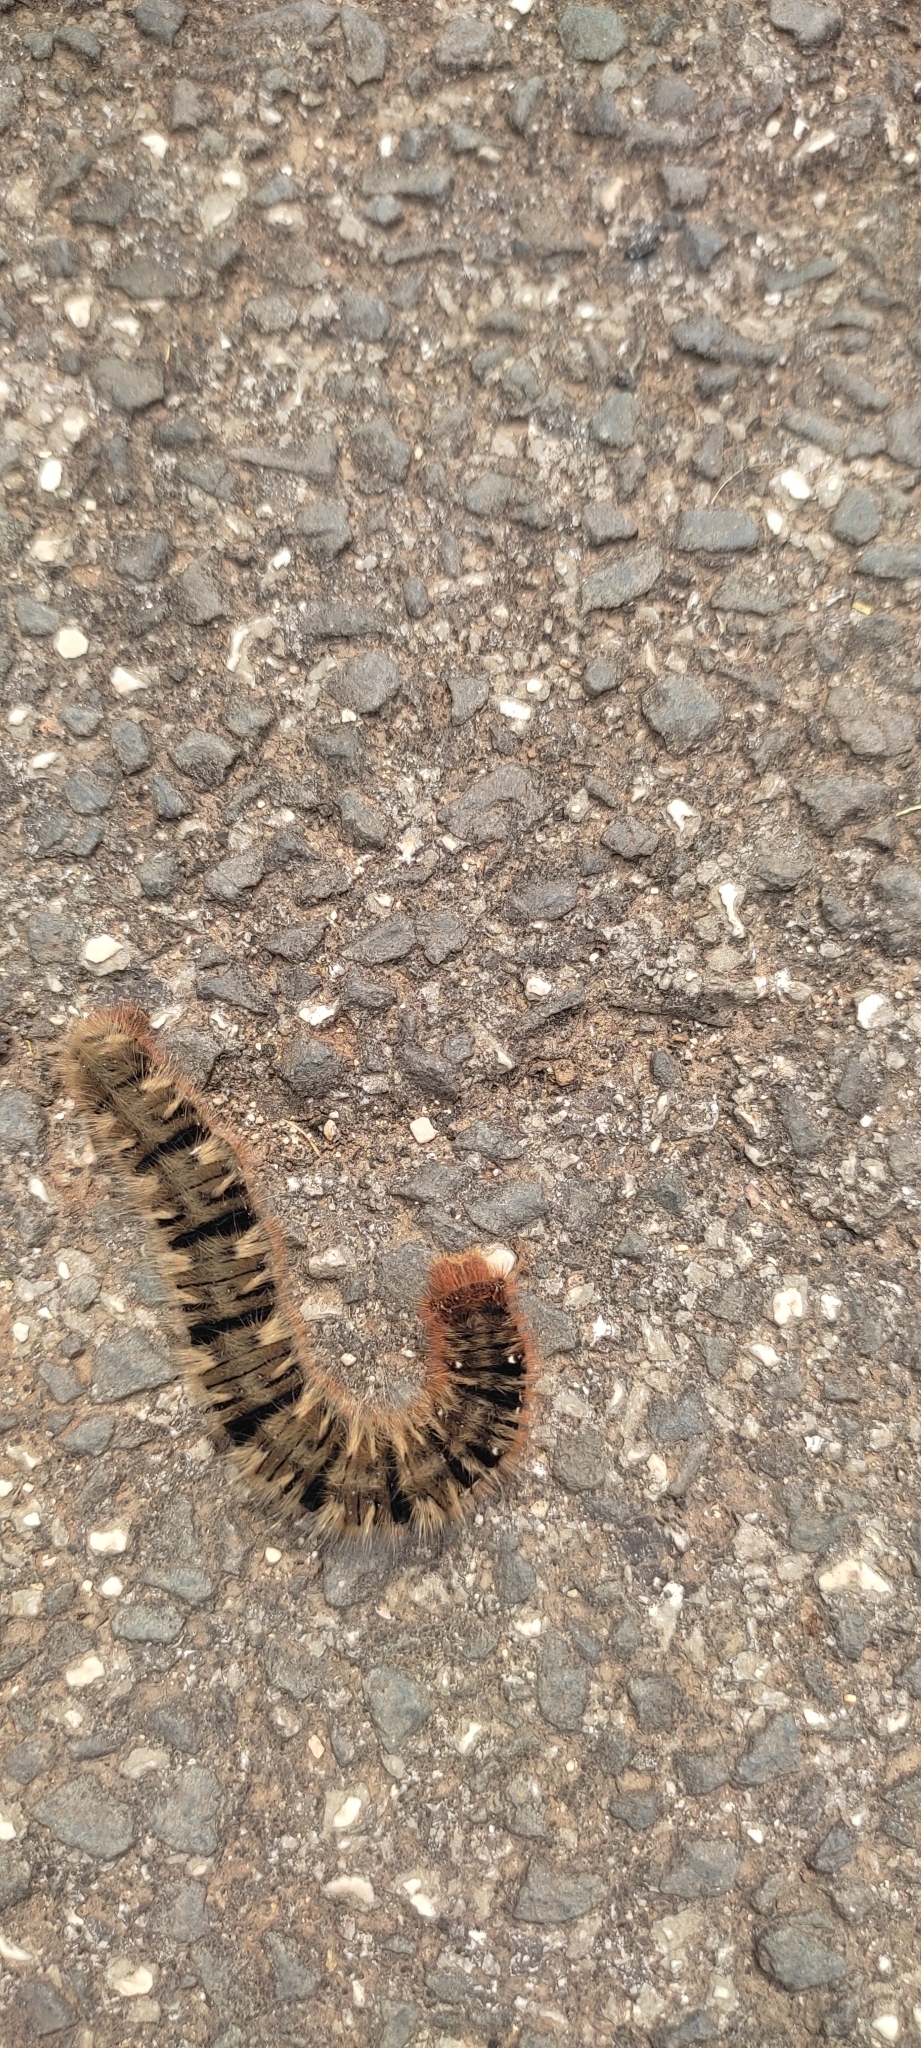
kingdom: Animalia
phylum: Arthropoda
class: Insecta
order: Lepidoptera
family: Lasiocampidae
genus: Lasiocampa
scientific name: Lasiocampa quercus
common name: Oak eggar
